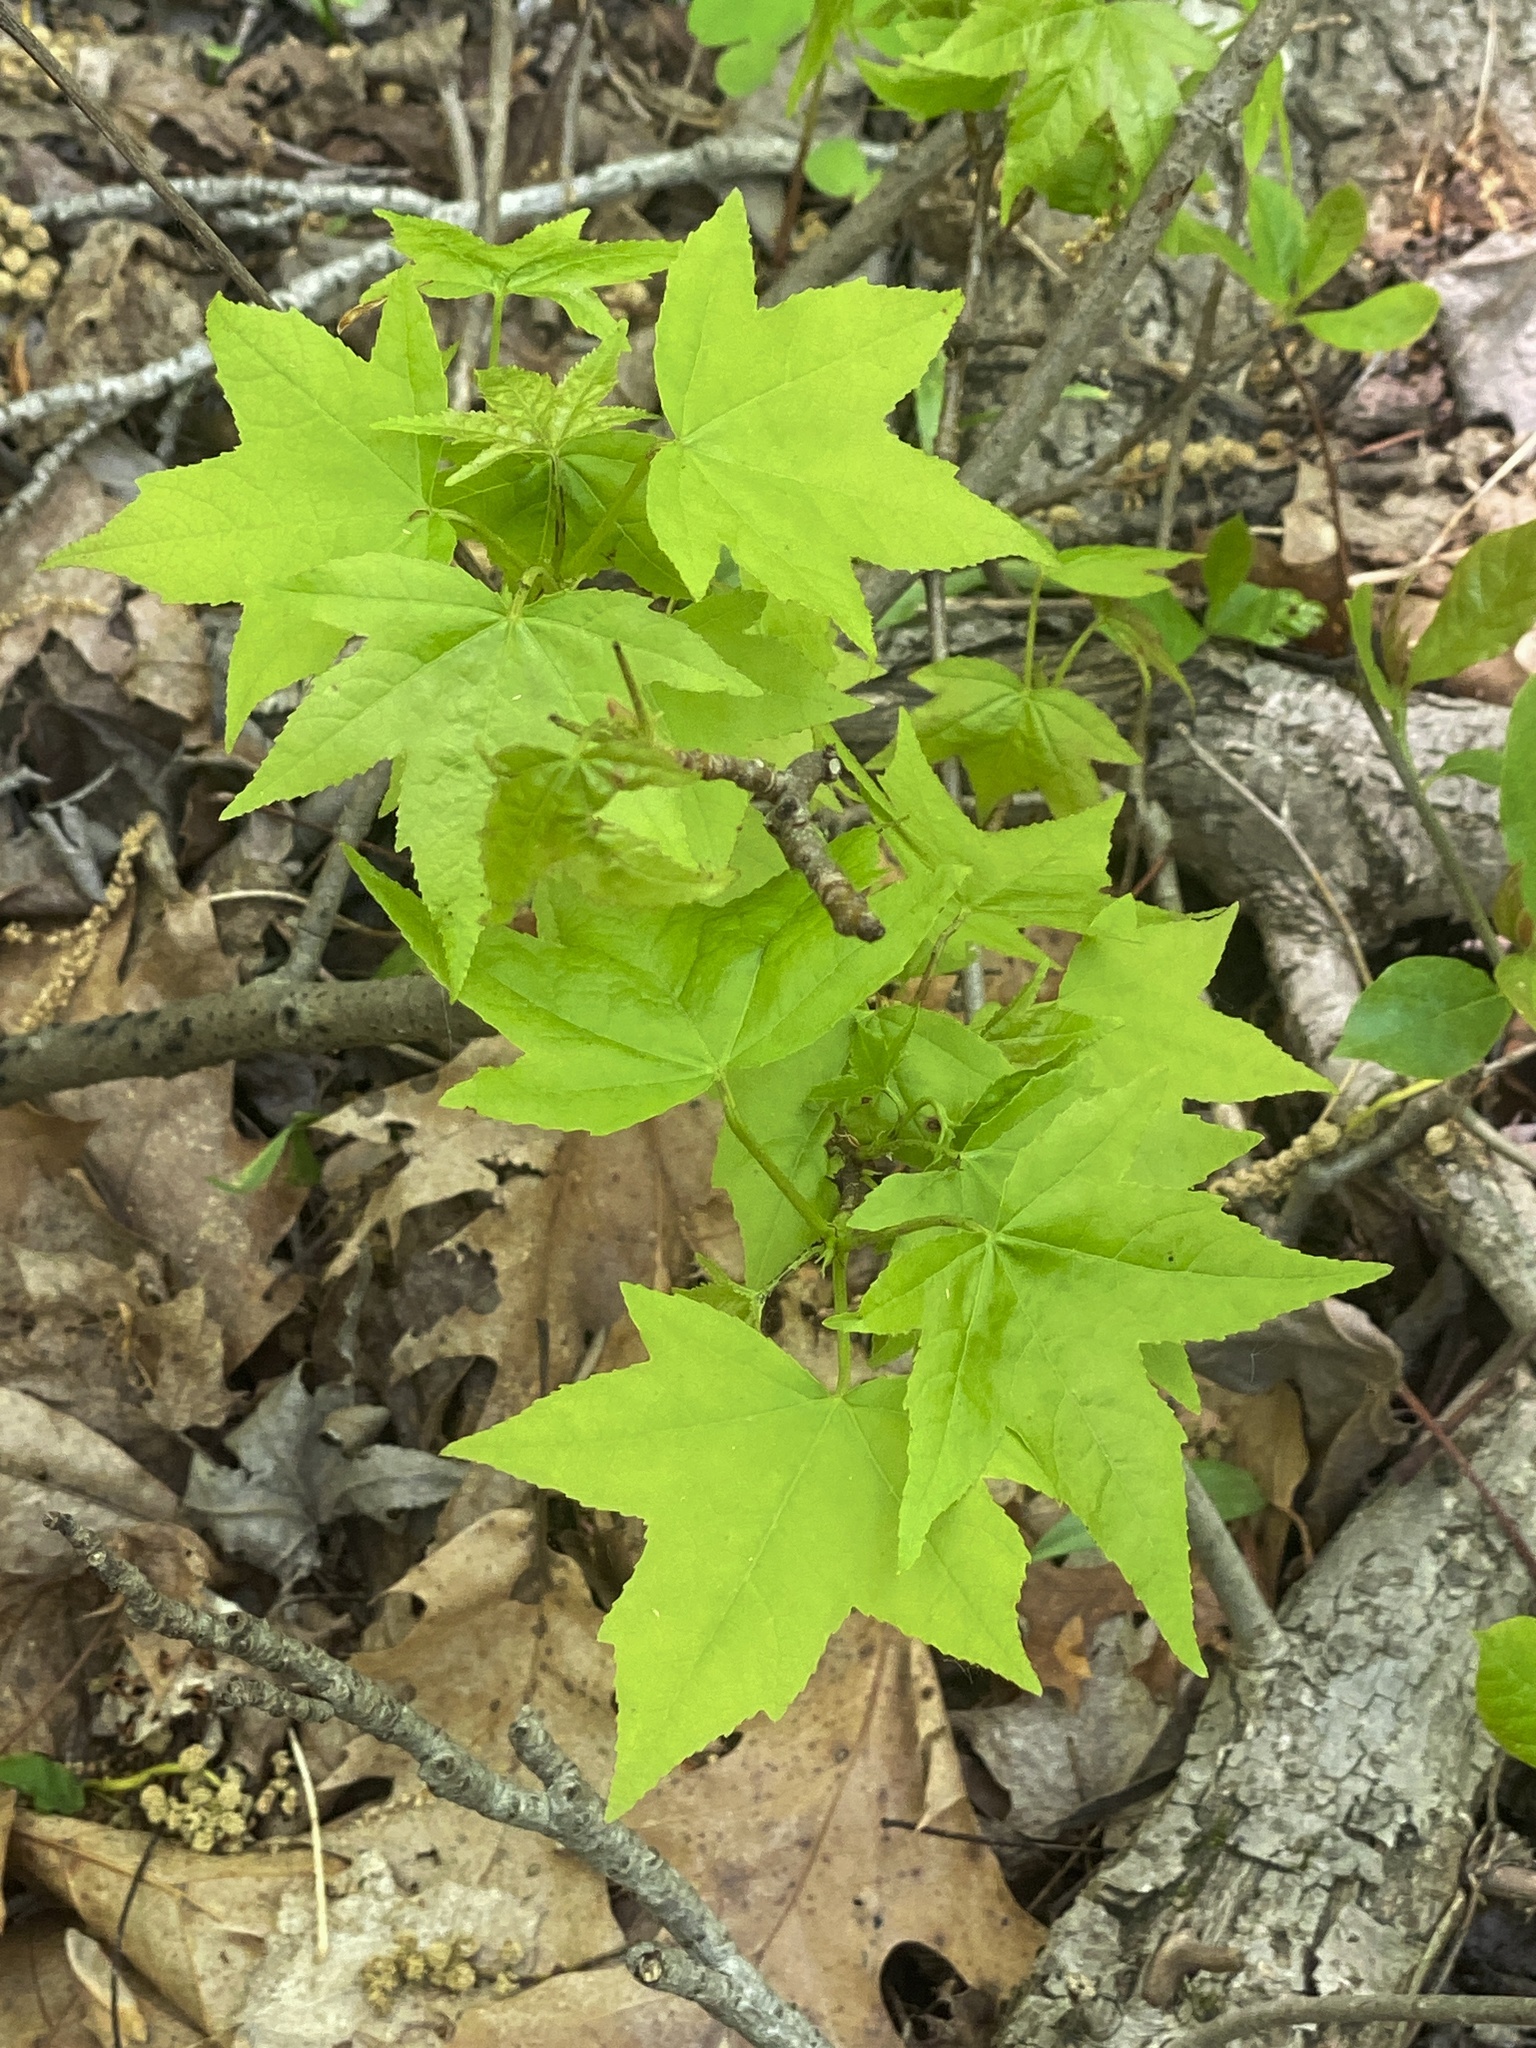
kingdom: Plantae
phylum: Tracheophyta
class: Magnoliopsida
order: Saxifragales
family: Altingiaceae
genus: Liquidambar
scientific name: Liquidambar styraciflua
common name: Sweet gum
